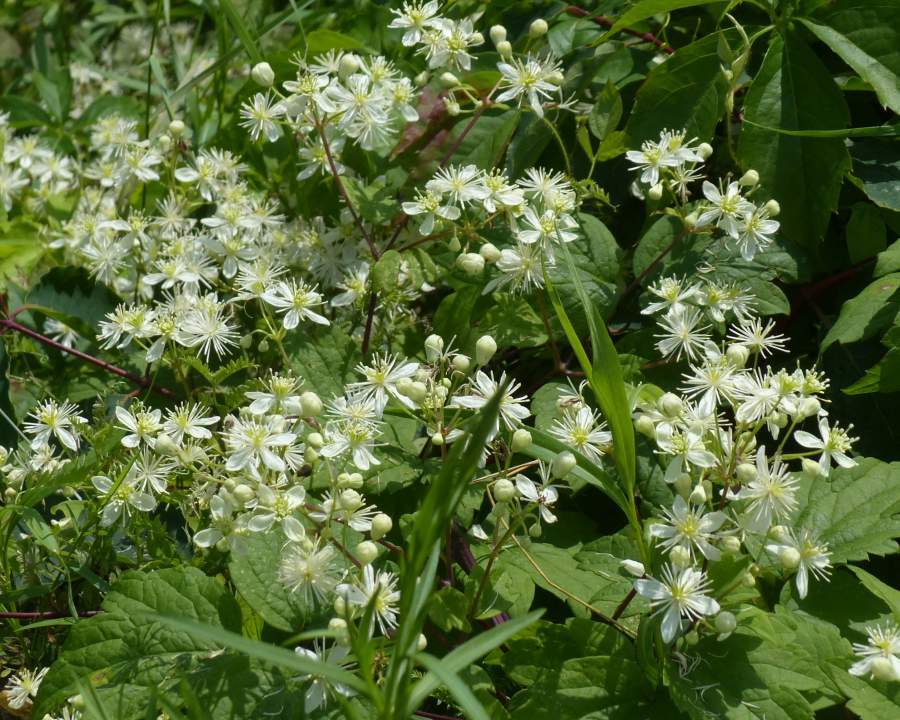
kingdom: Plantae
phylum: Tracheophyta
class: Magnoliopsida
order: Ranunculales
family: Ranunculaceae
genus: Clematis
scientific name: Clematis virginiana
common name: Virgin's-bower
